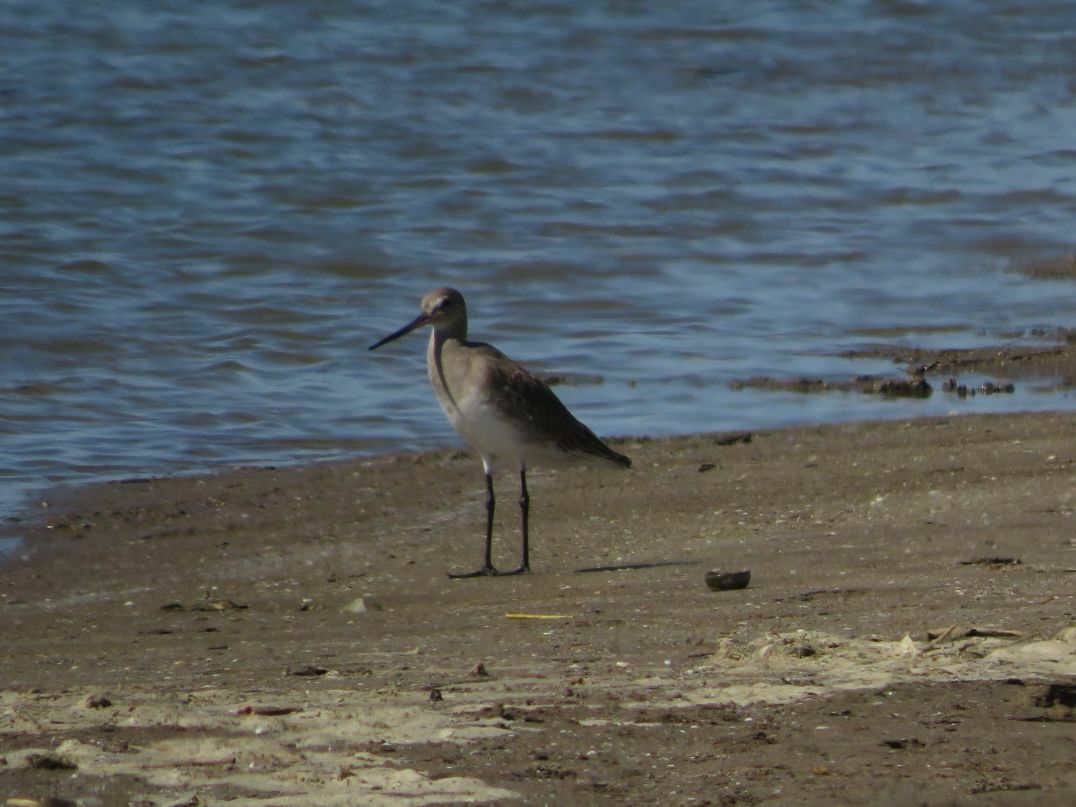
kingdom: Animalia
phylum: Chordata
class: Aves
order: Charadriiformes
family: Scolopacidae
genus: Limosa
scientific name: Limosa haemastica
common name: Hudsonian godwit
